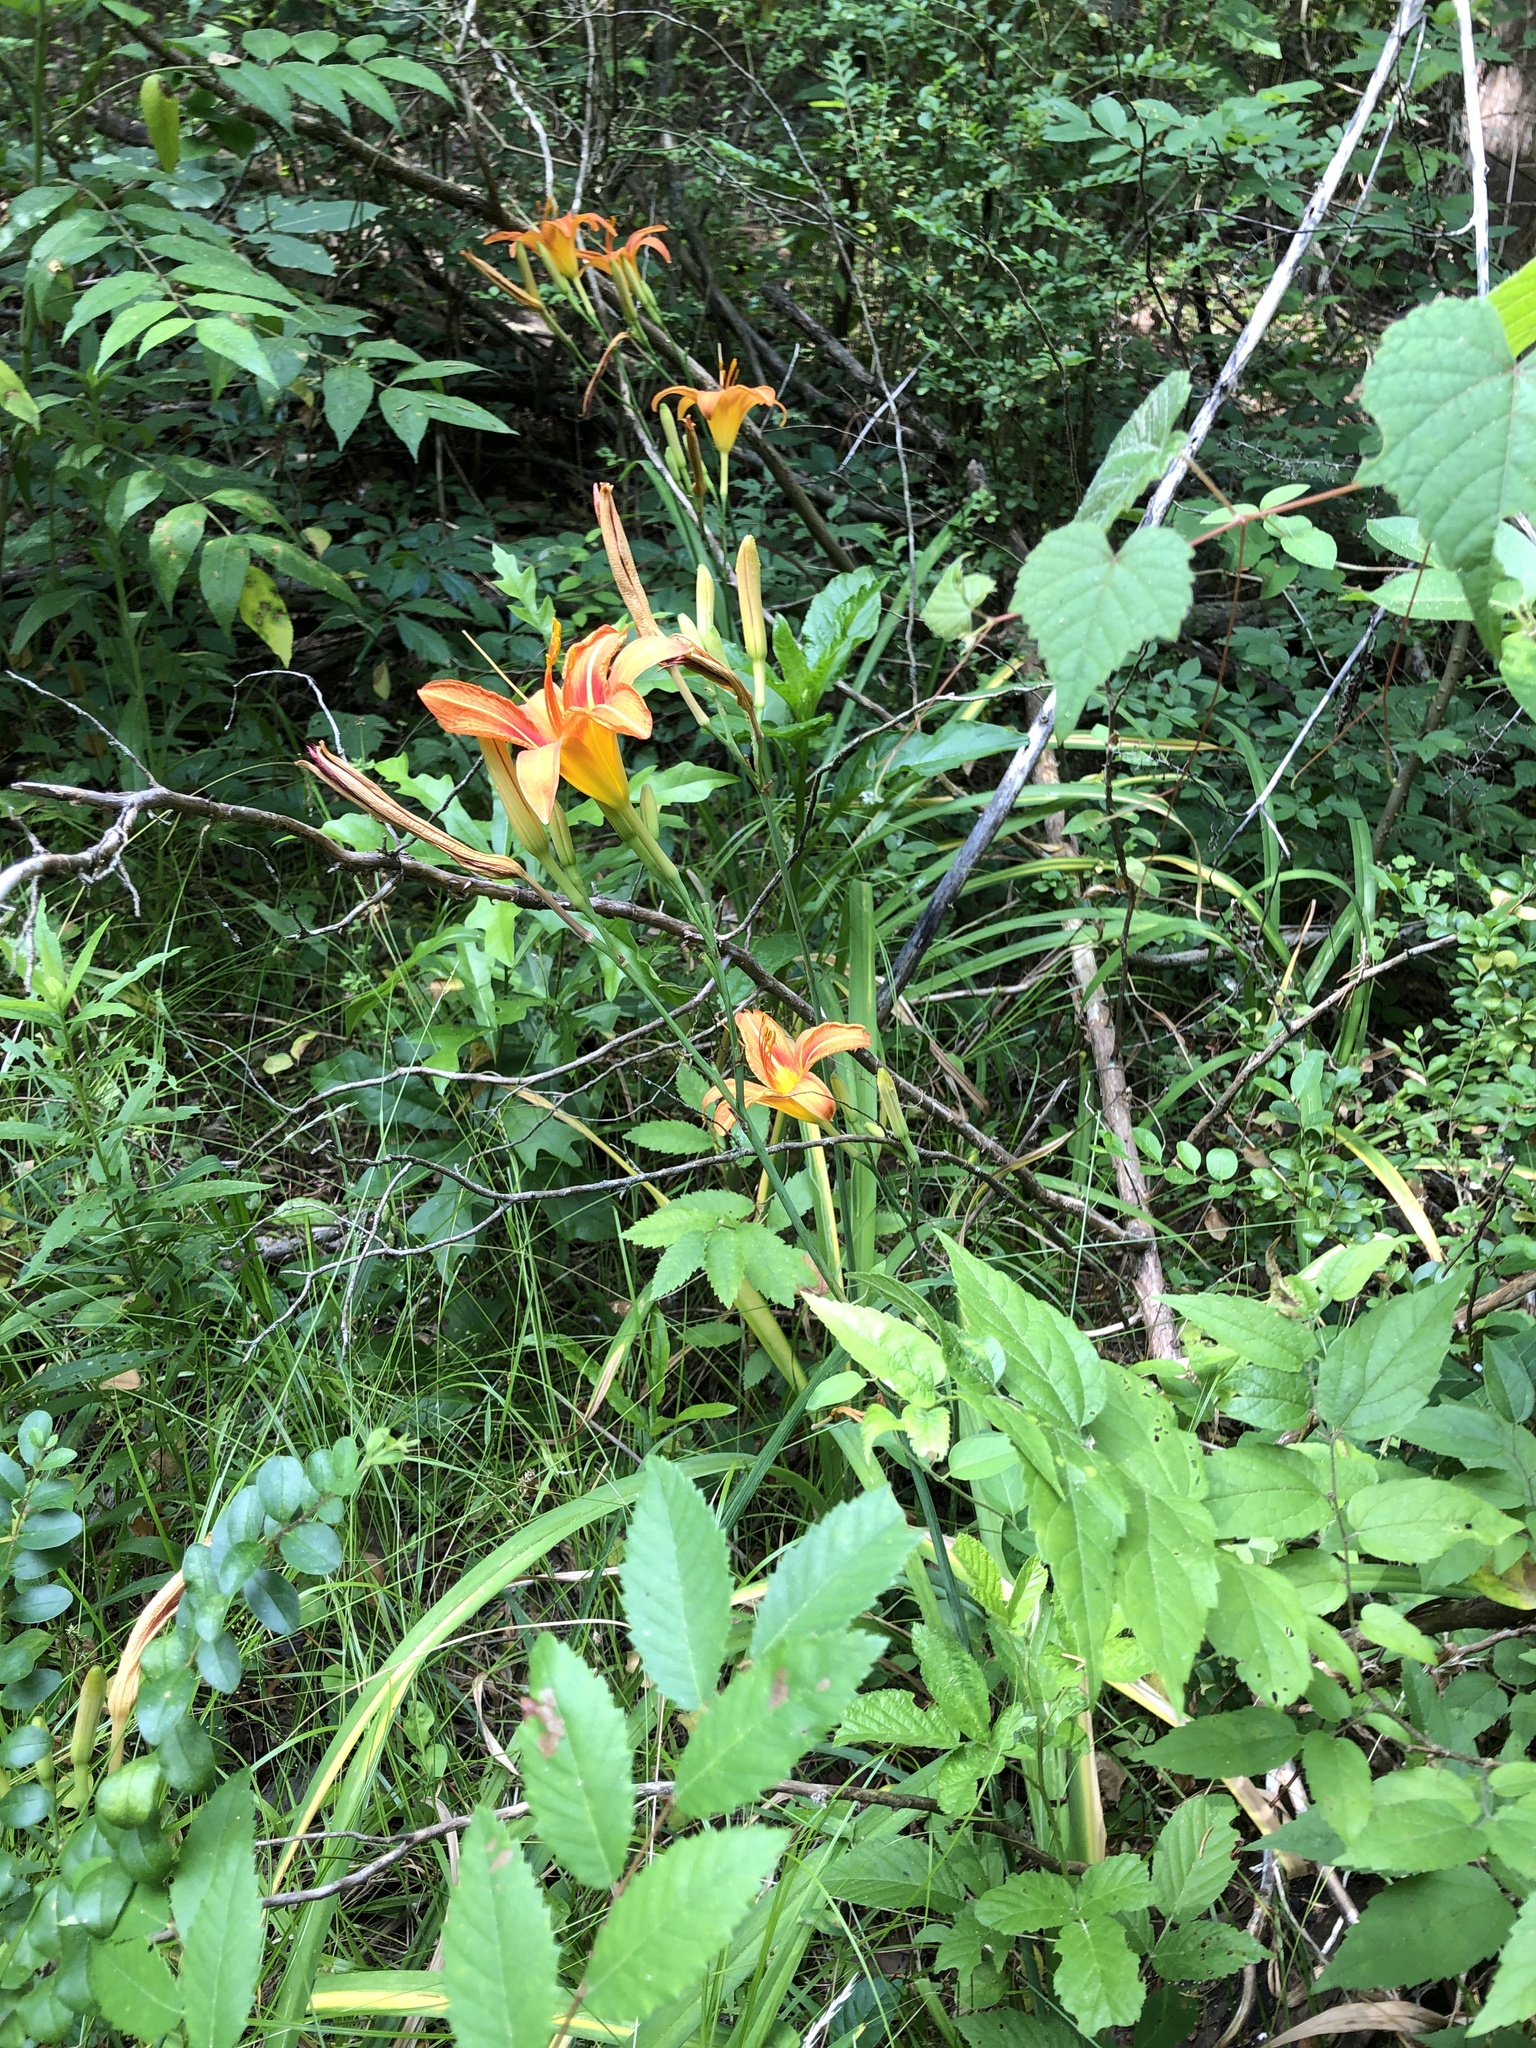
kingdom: Plantae
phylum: Tracheophyta
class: Liliopsida
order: Asparagales
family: Asphodelaceae
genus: Hemerocallis
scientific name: Hemerocallis fulva
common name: Orange day-lily
